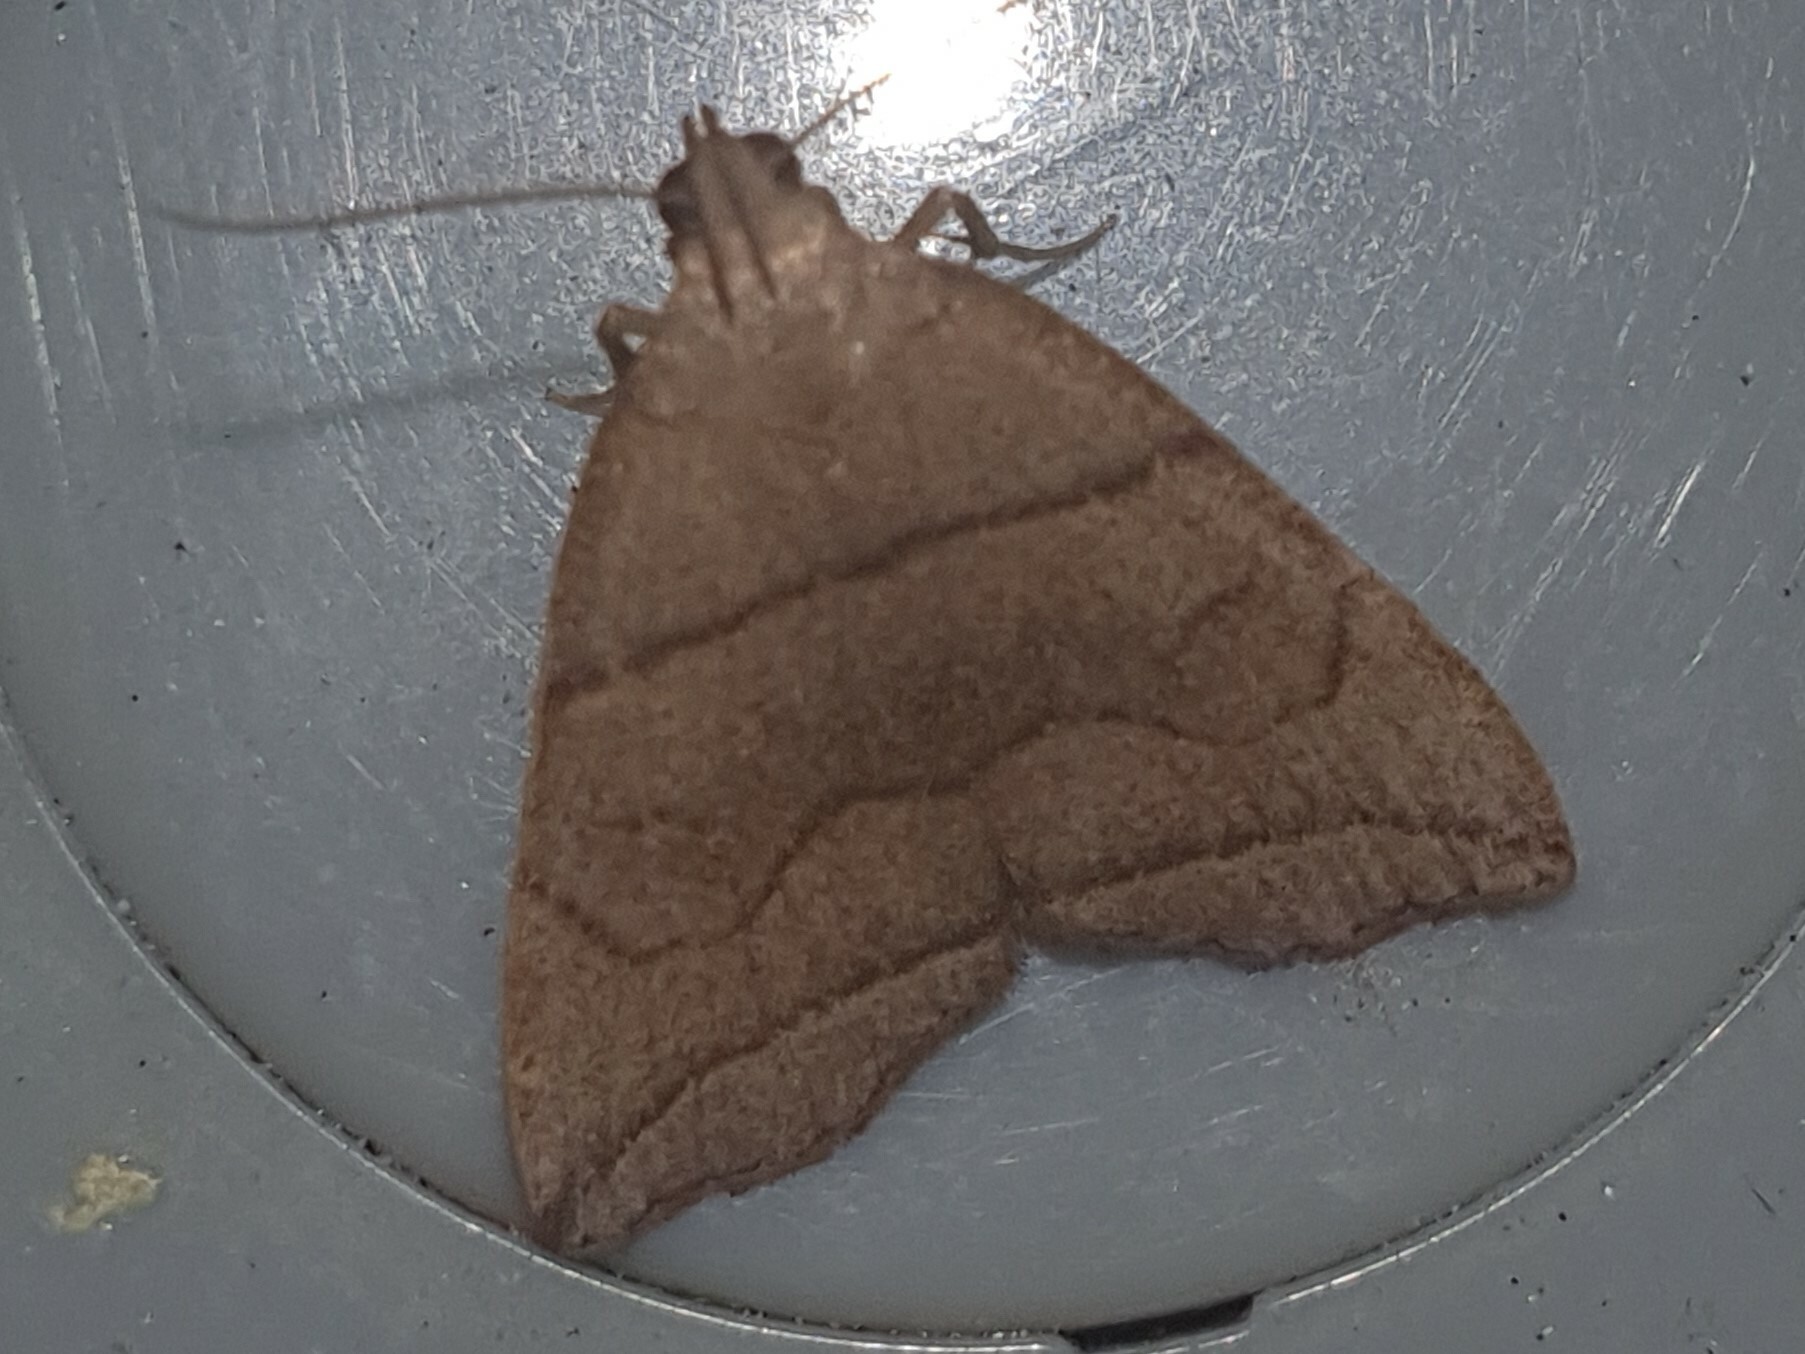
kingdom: Animalia
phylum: Arthropoda
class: Insecta
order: Lepidoptera
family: Erebidae
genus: Herminia
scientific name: Herminia grisealis
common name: Small fan-foot
